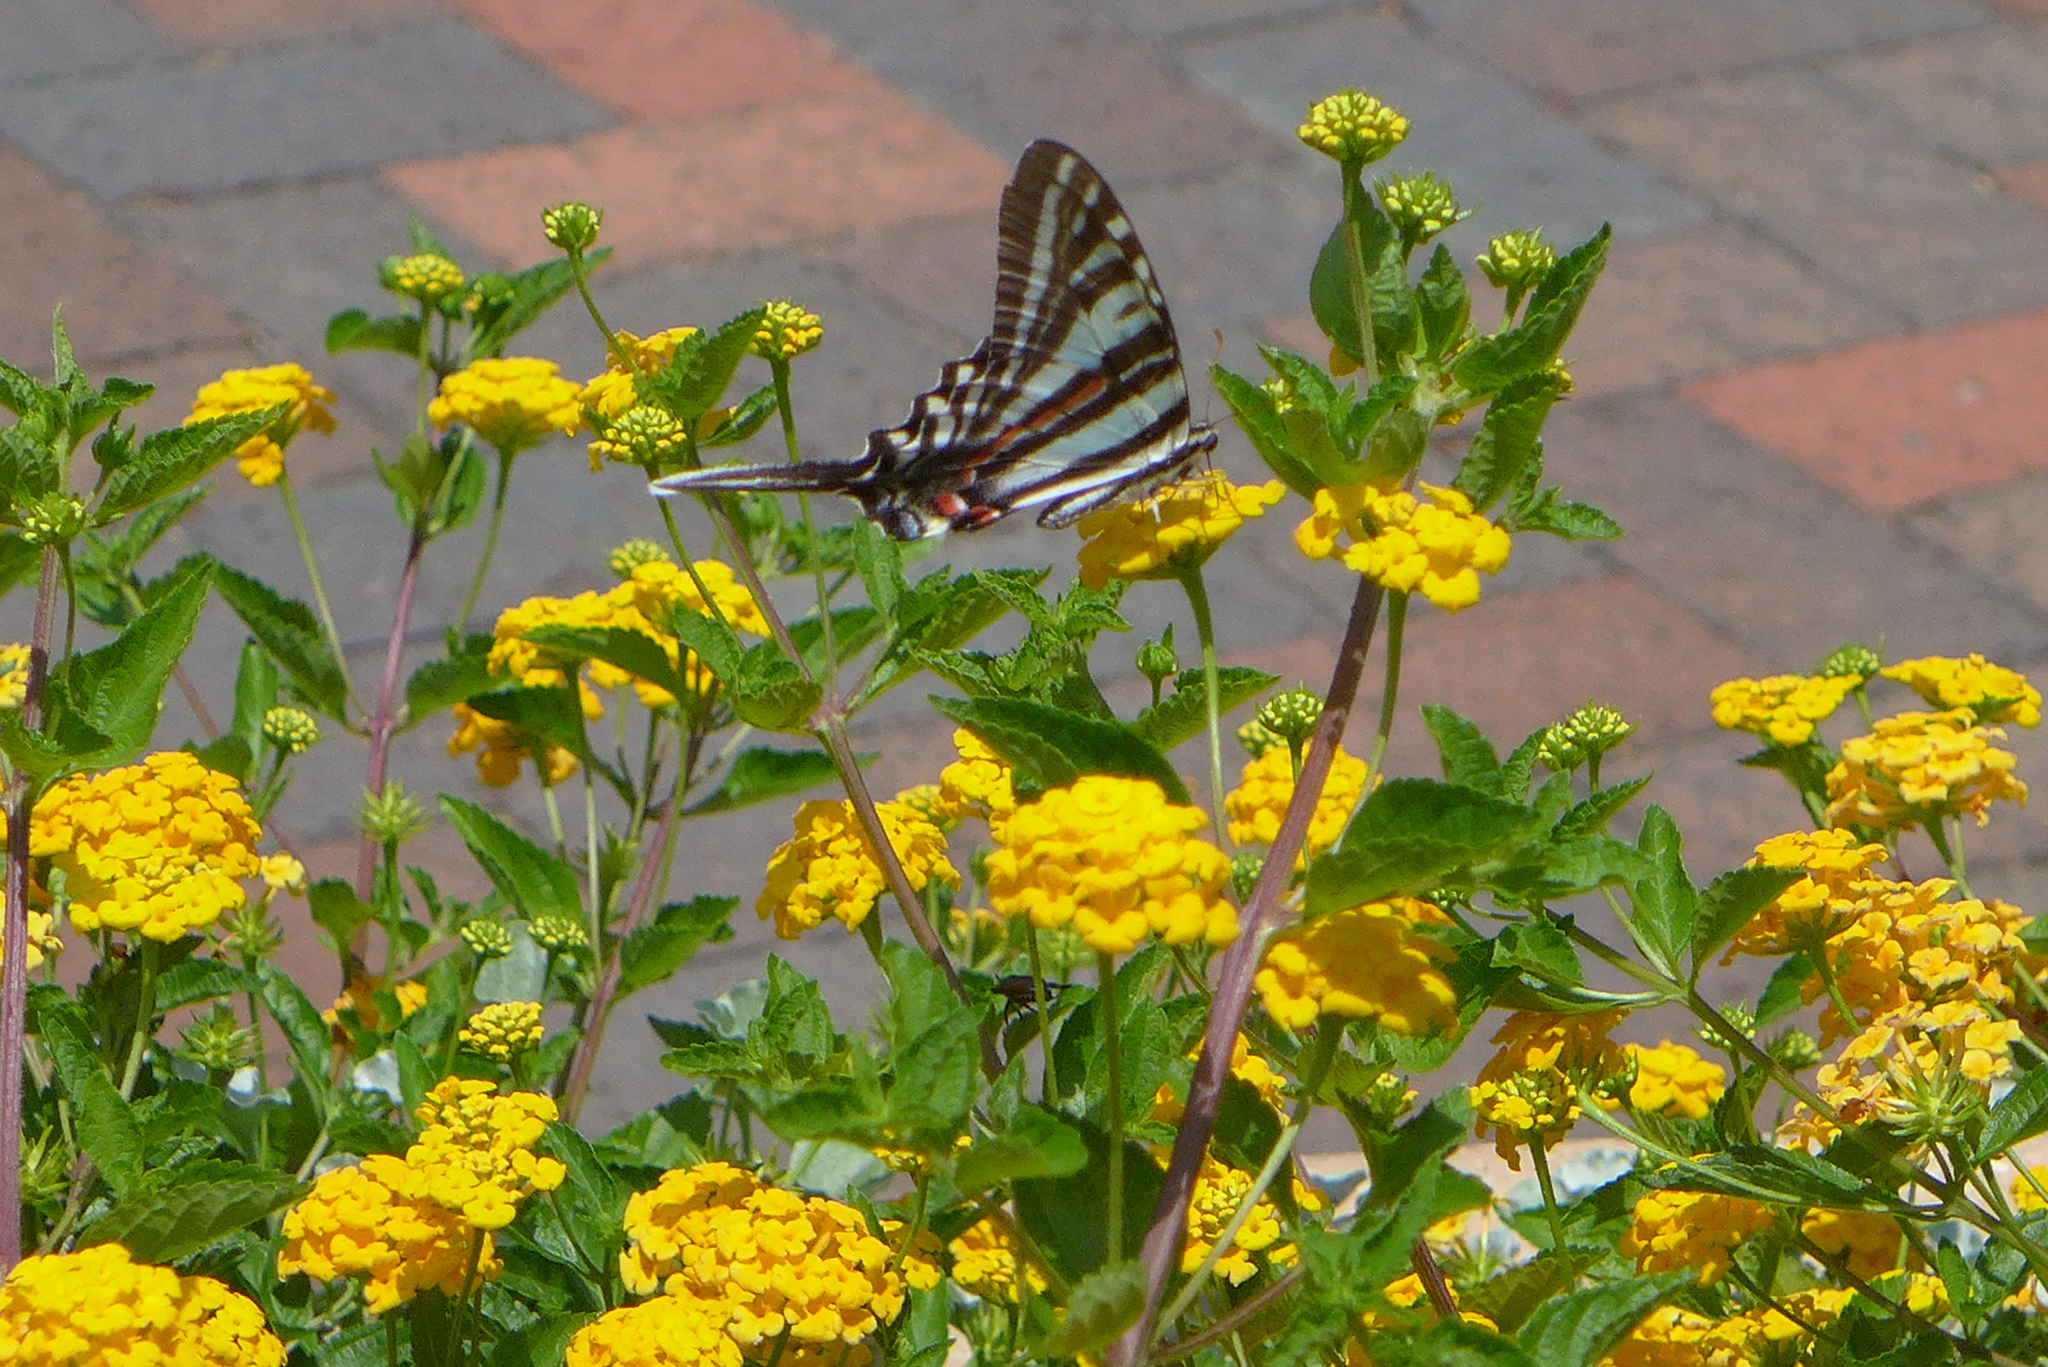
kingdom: Animalia
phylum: Arthropoda
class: Insecta
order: Lepidoptera
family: Papilionidae
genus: Protographium
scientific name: Protographium marcellus
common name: Zebra swallowtail
